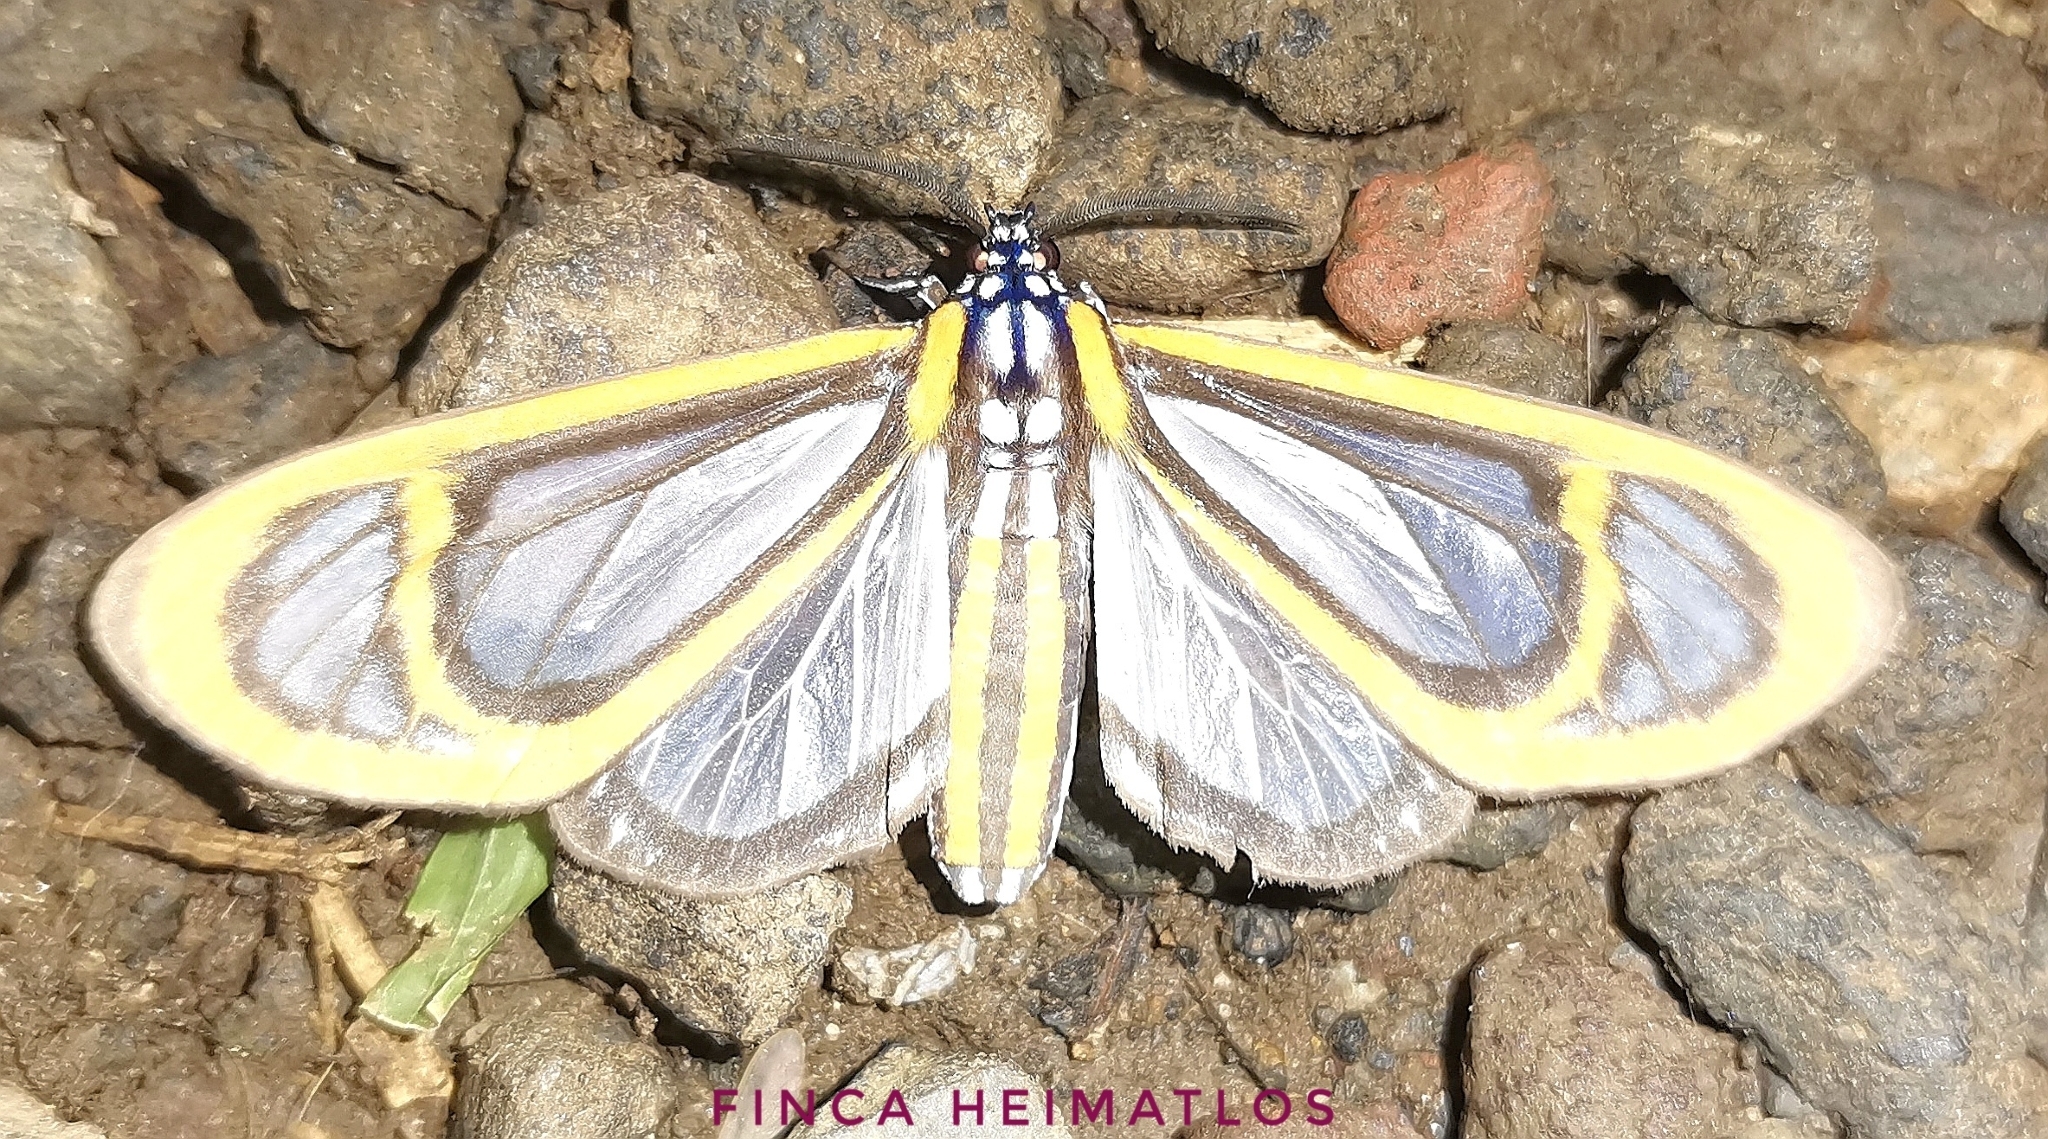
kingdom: Animalia
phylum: Arthropoda
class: Insecta
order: Lepidoptera
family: Erebidae
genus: Hyalurga
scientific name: Hyalurga fenestra
